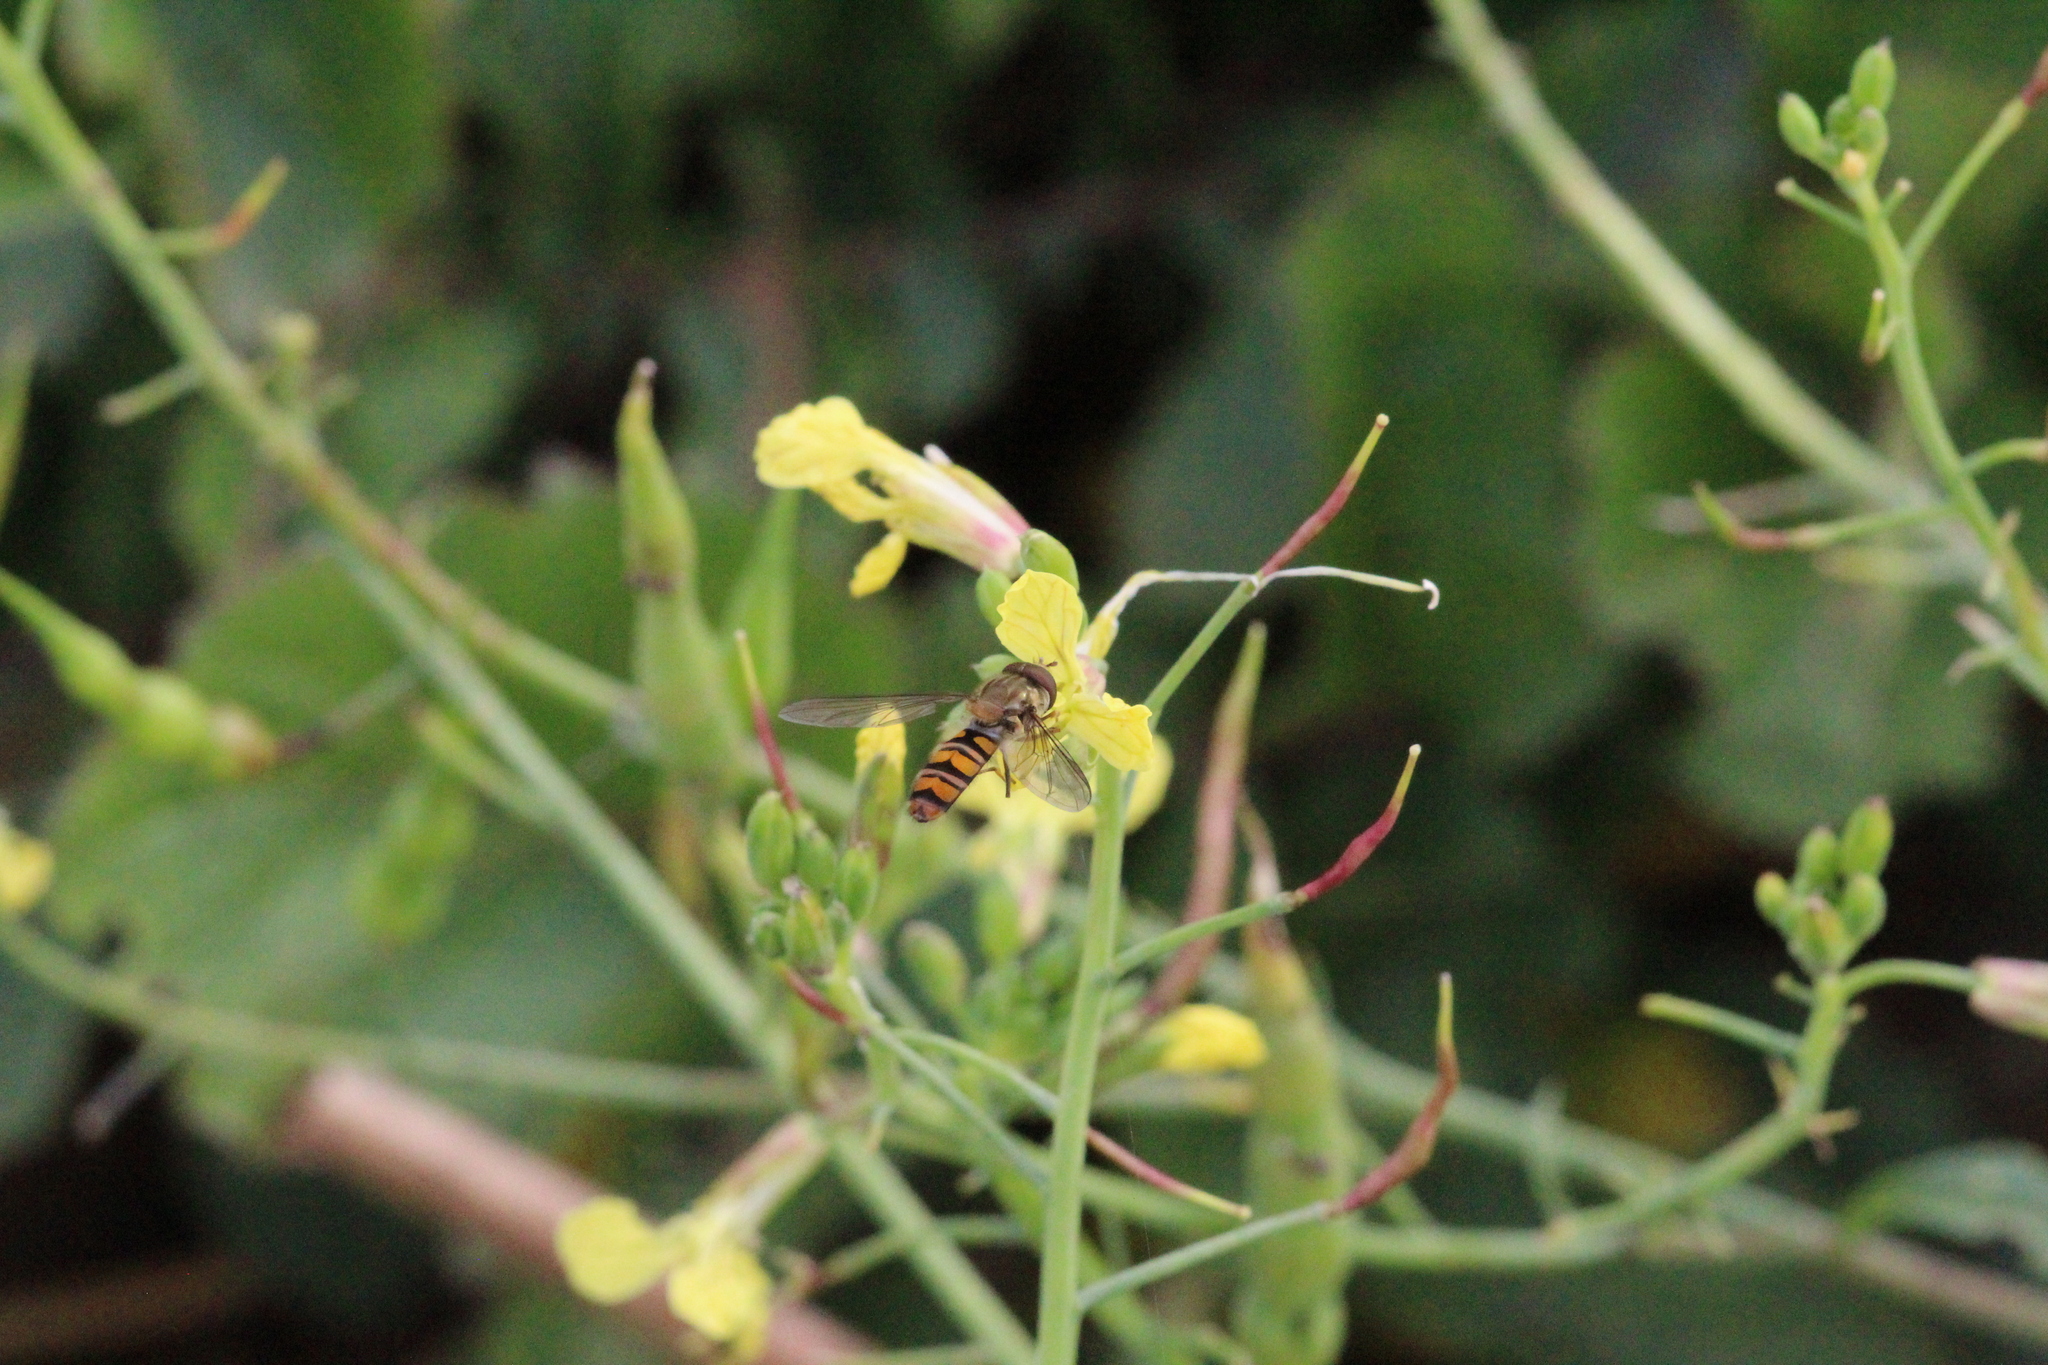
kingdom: Animalia
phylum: Arthropoda
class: Insecta
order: Diptera
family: Syrphidae
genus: Episyrphus
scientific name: Episyrphus balteatus
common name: Marmalade hoverfly
